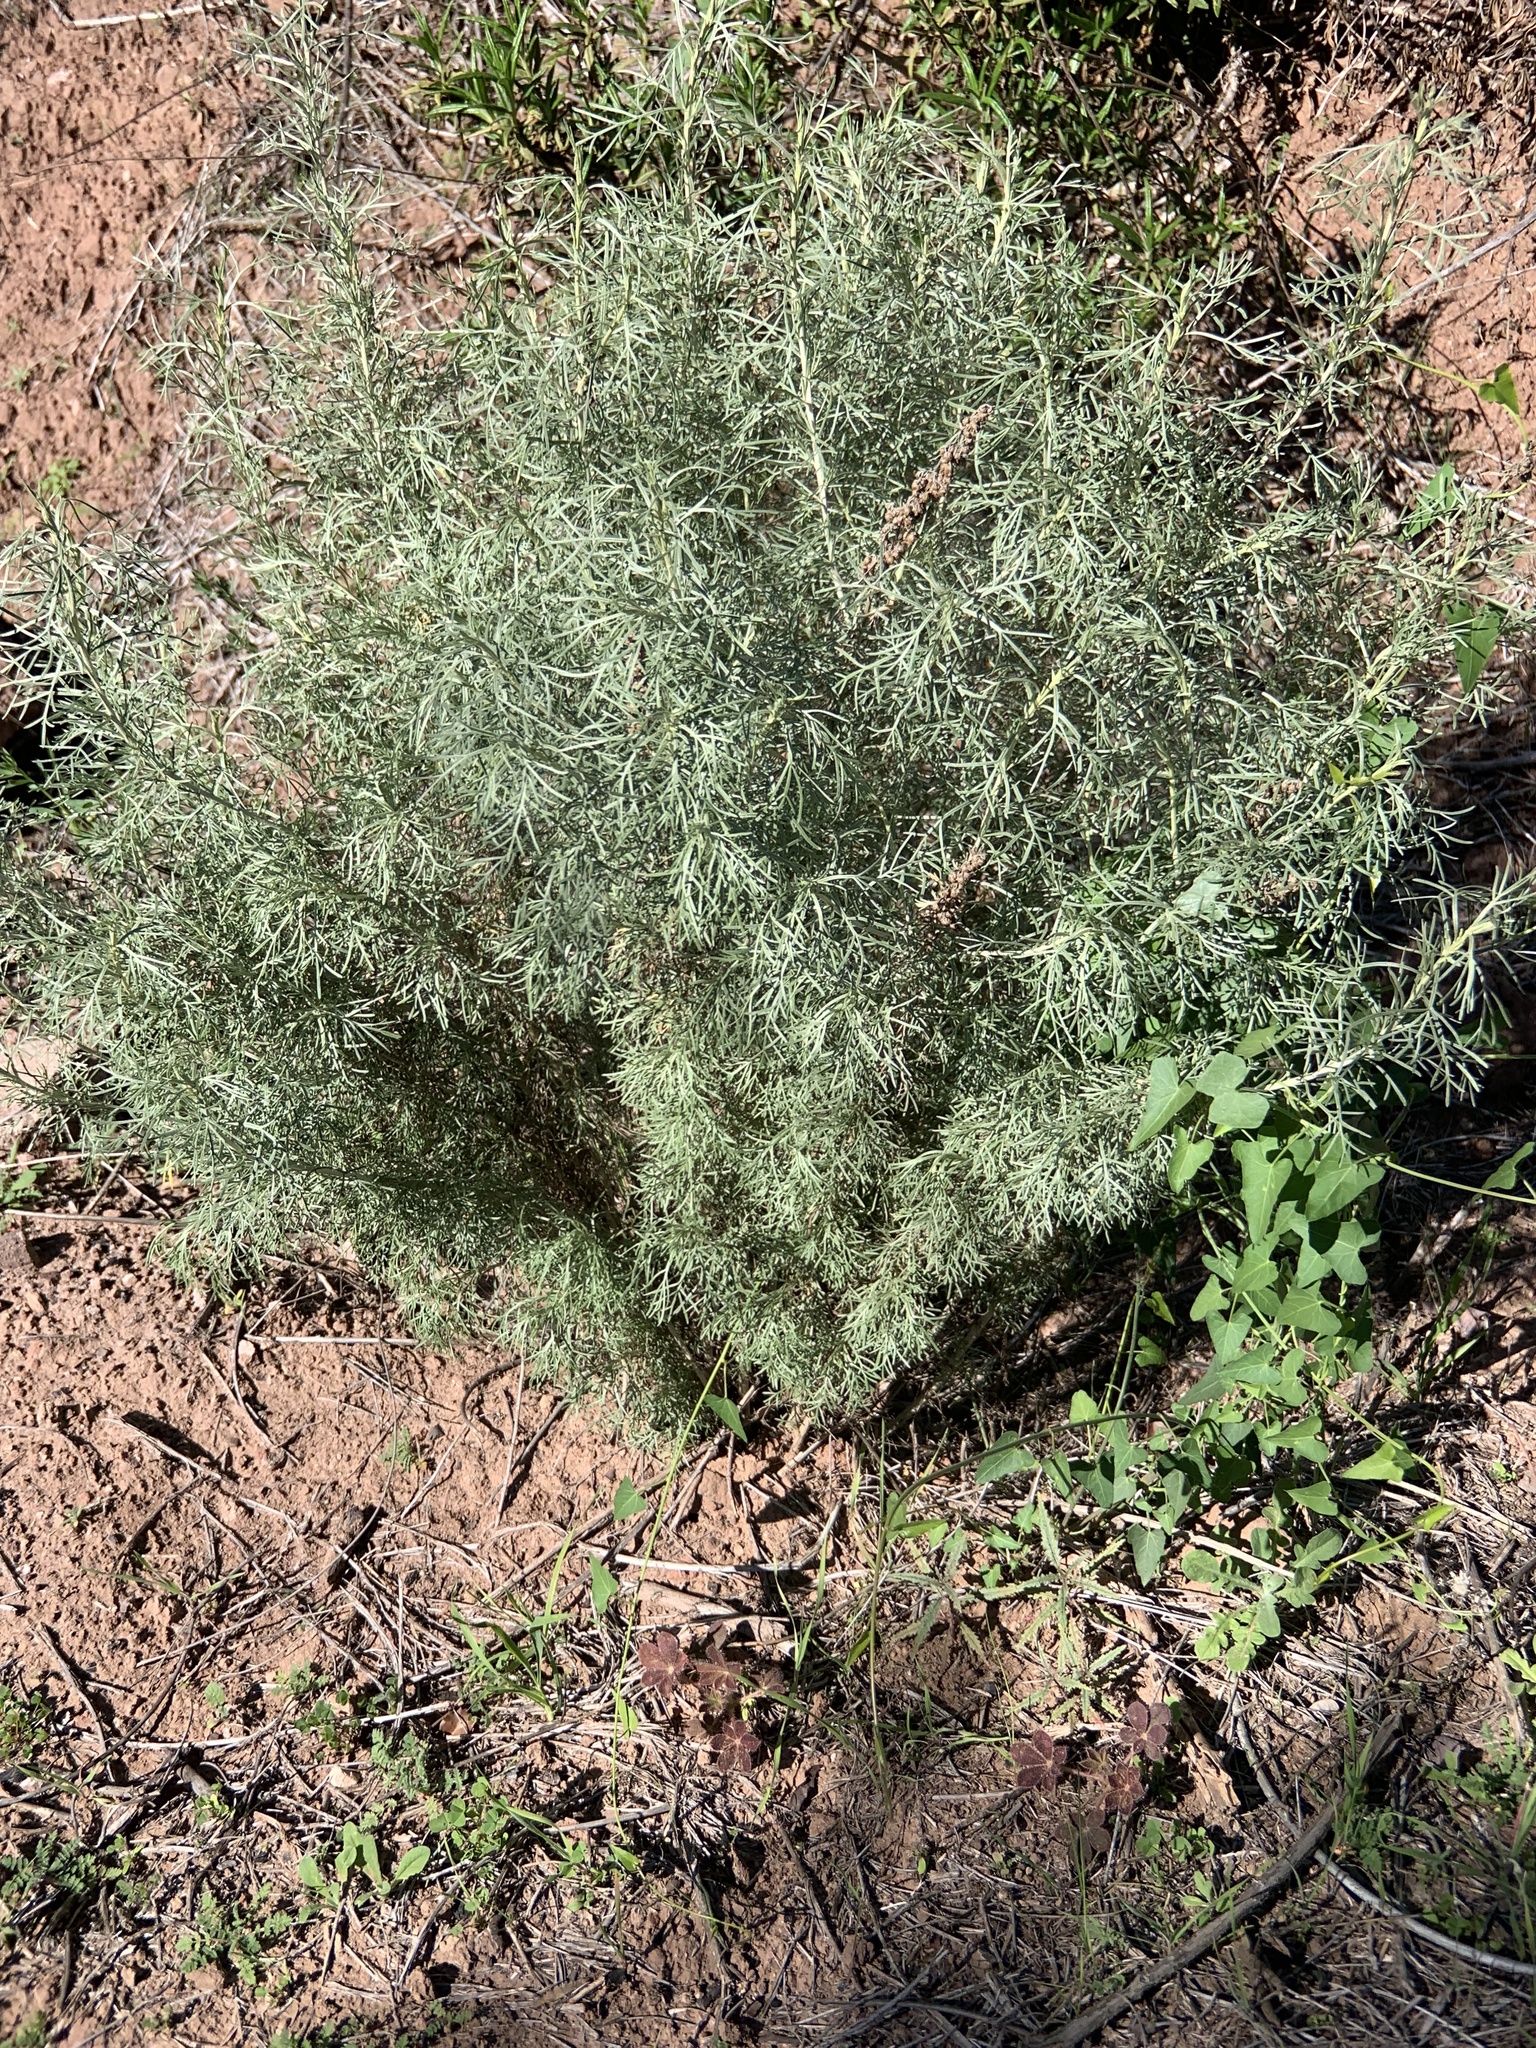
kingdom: Plantae
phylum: Tracheophyta
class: Magnoliopsida
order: Asterales
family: Asteraceae
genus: Artemisia
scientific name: Artemisia californica
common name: California sagebrush
